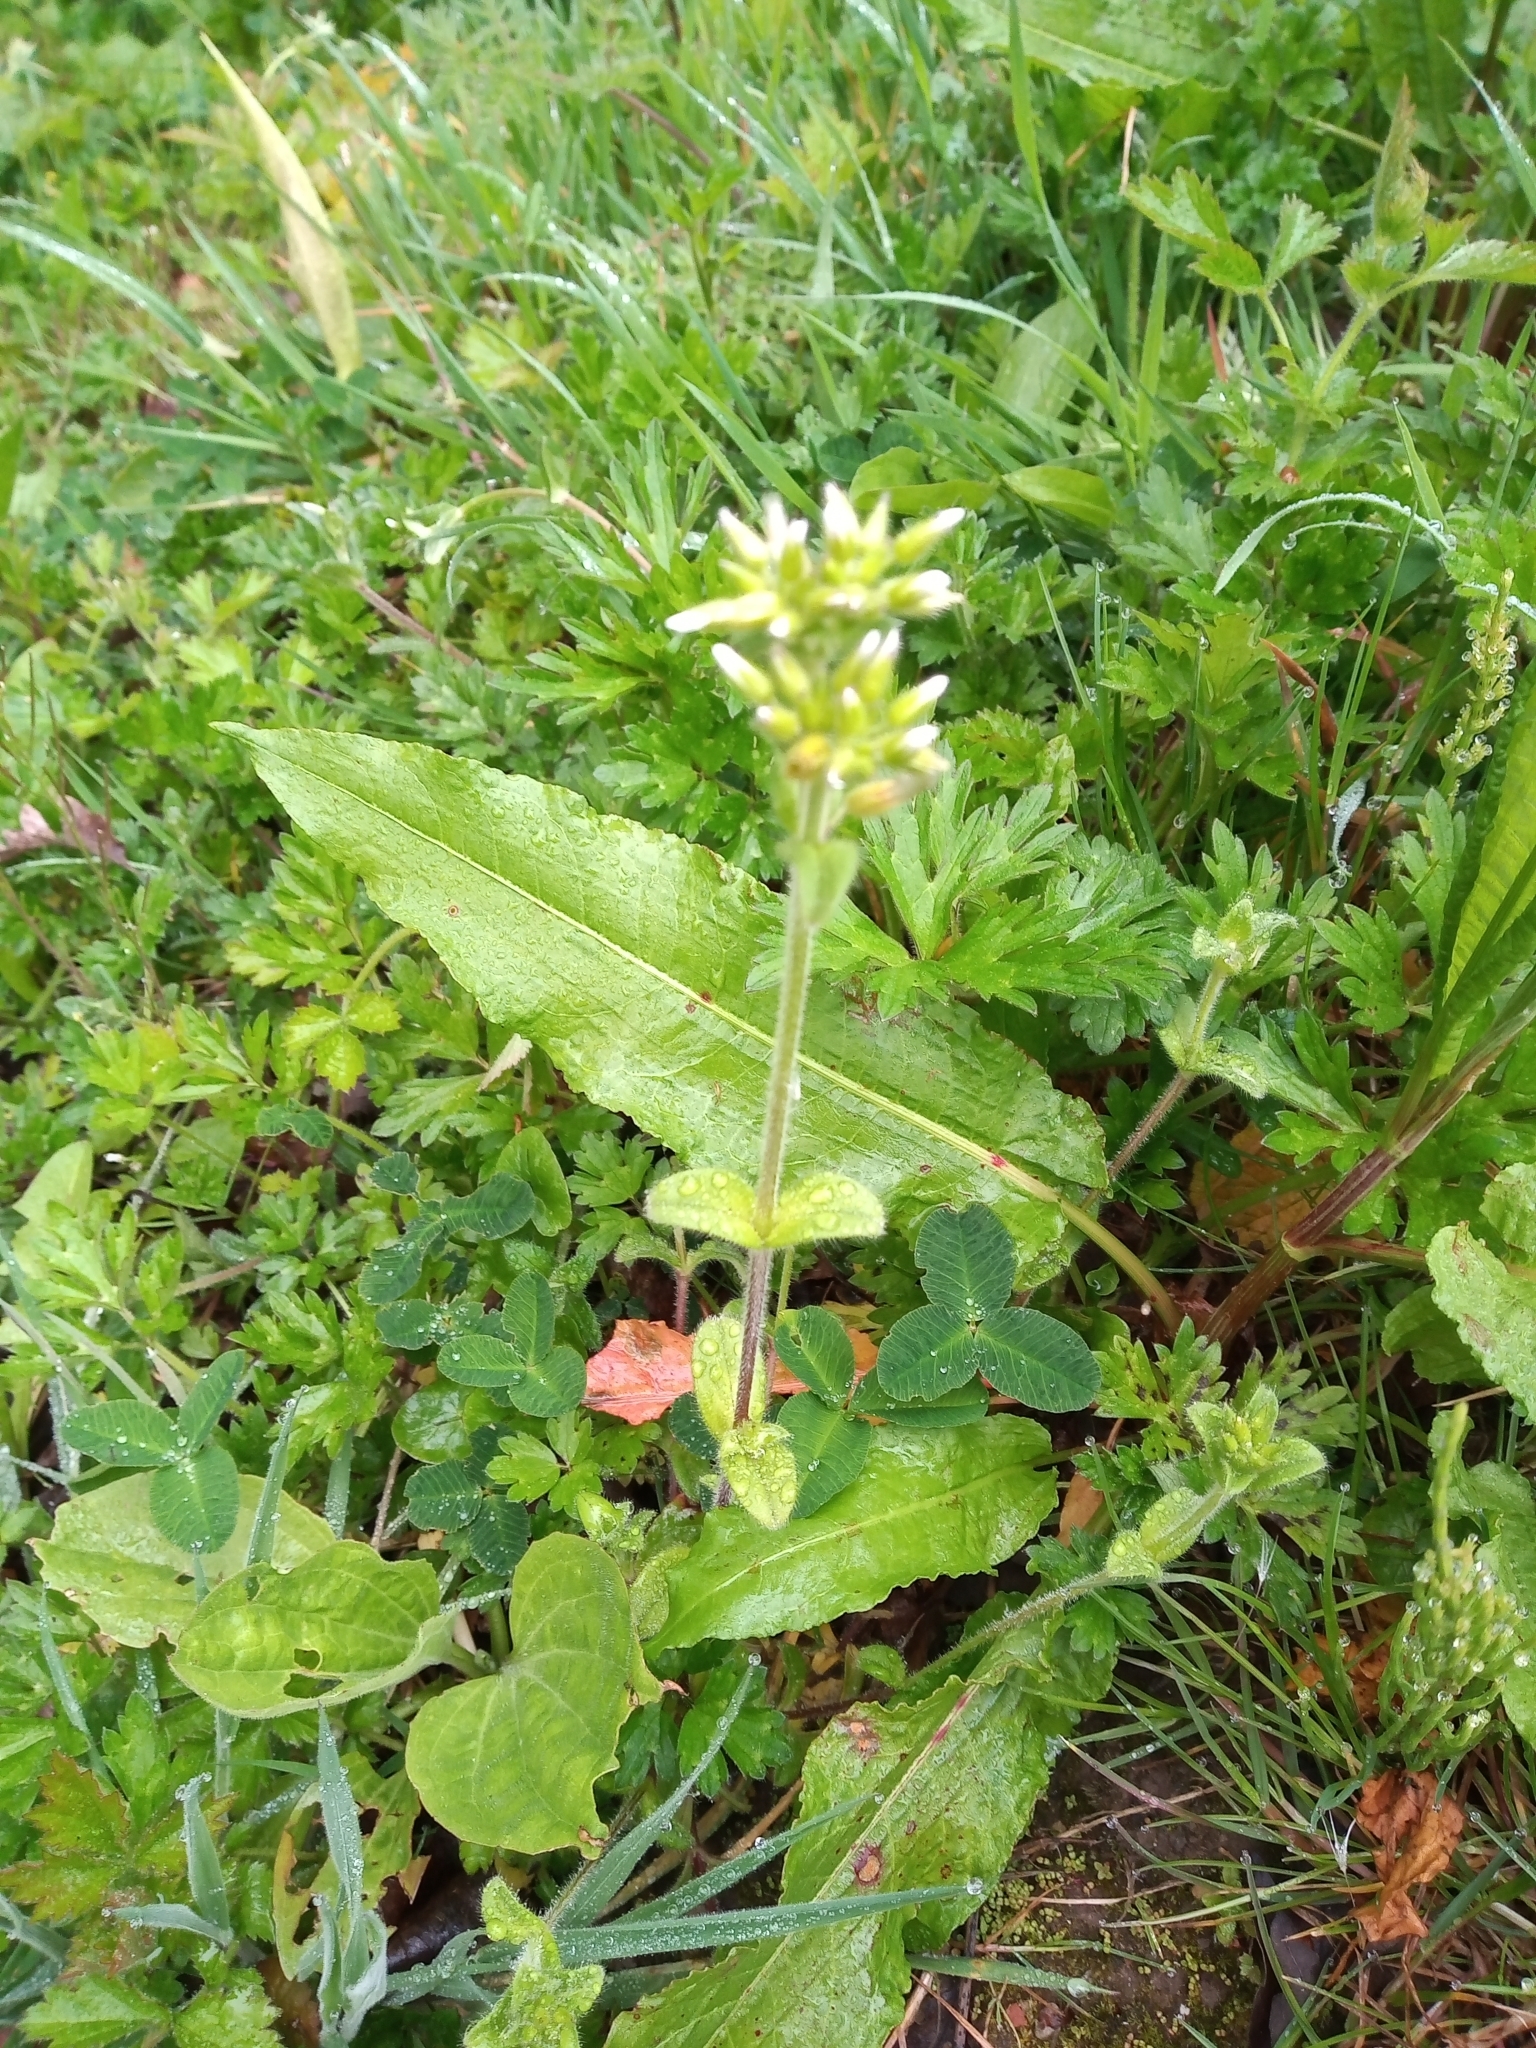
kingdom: Plantae
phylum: Tracheophyta
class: Magnoliopsida
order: Caryophyllales
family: Caryophyllaceae
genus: Cerastium
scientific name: Cerastium glomeratum
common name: Sticky chickweed
